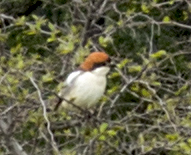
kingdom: Animalia
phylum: Chordata
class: Aves
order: Passeriformes
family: Laniidae
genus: Lanius
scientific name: Lanius senator
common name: Woodchat shrike
